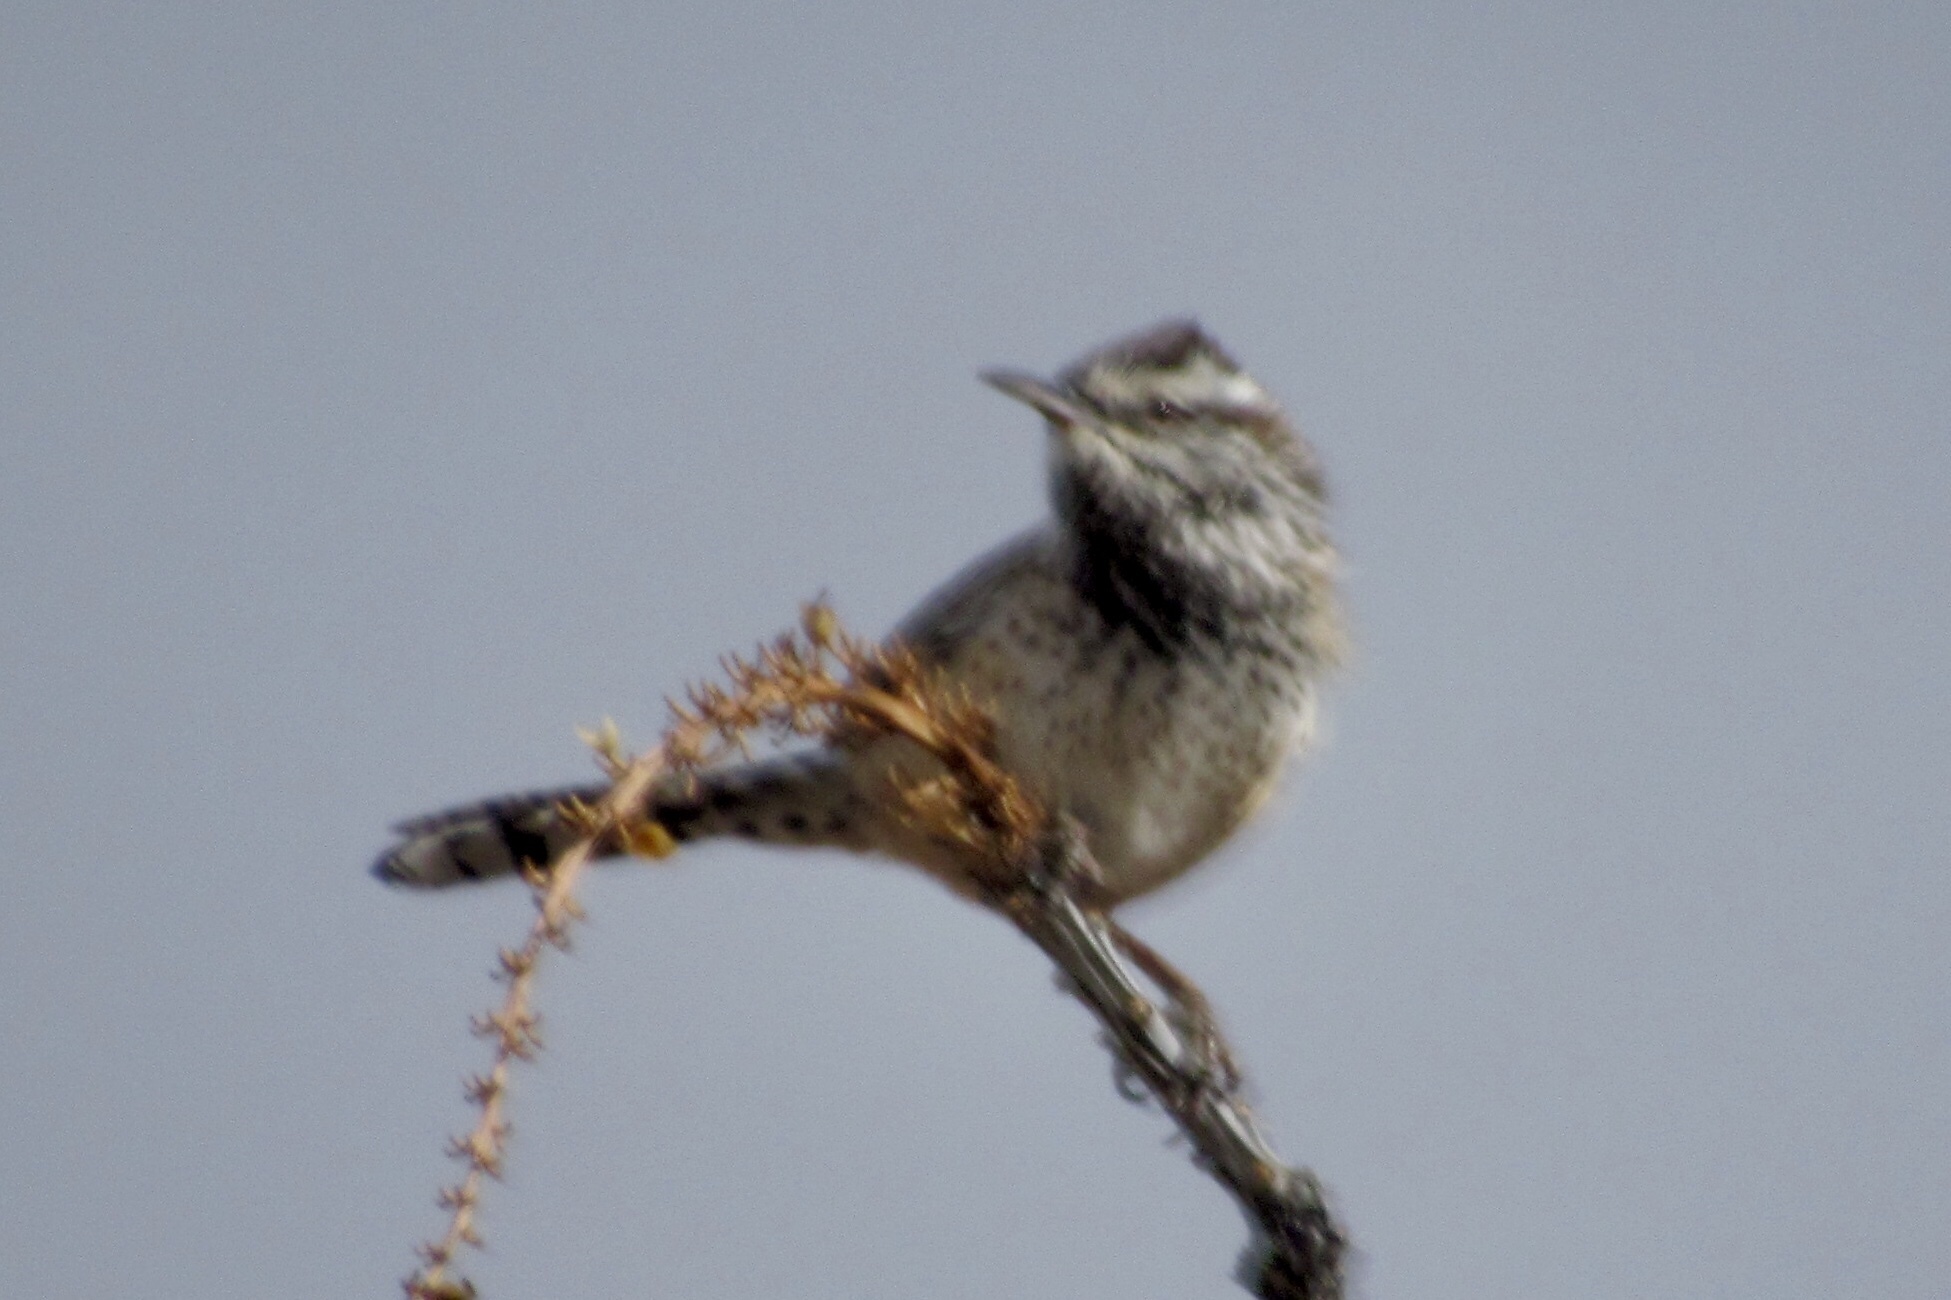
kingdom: Animalia
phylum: Chordata
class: Aves
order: Passeriformes
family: Troglodytidae
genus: Campylorhynchus
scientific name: Campylorhynchus brunneicapillus
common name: Cactus wren
